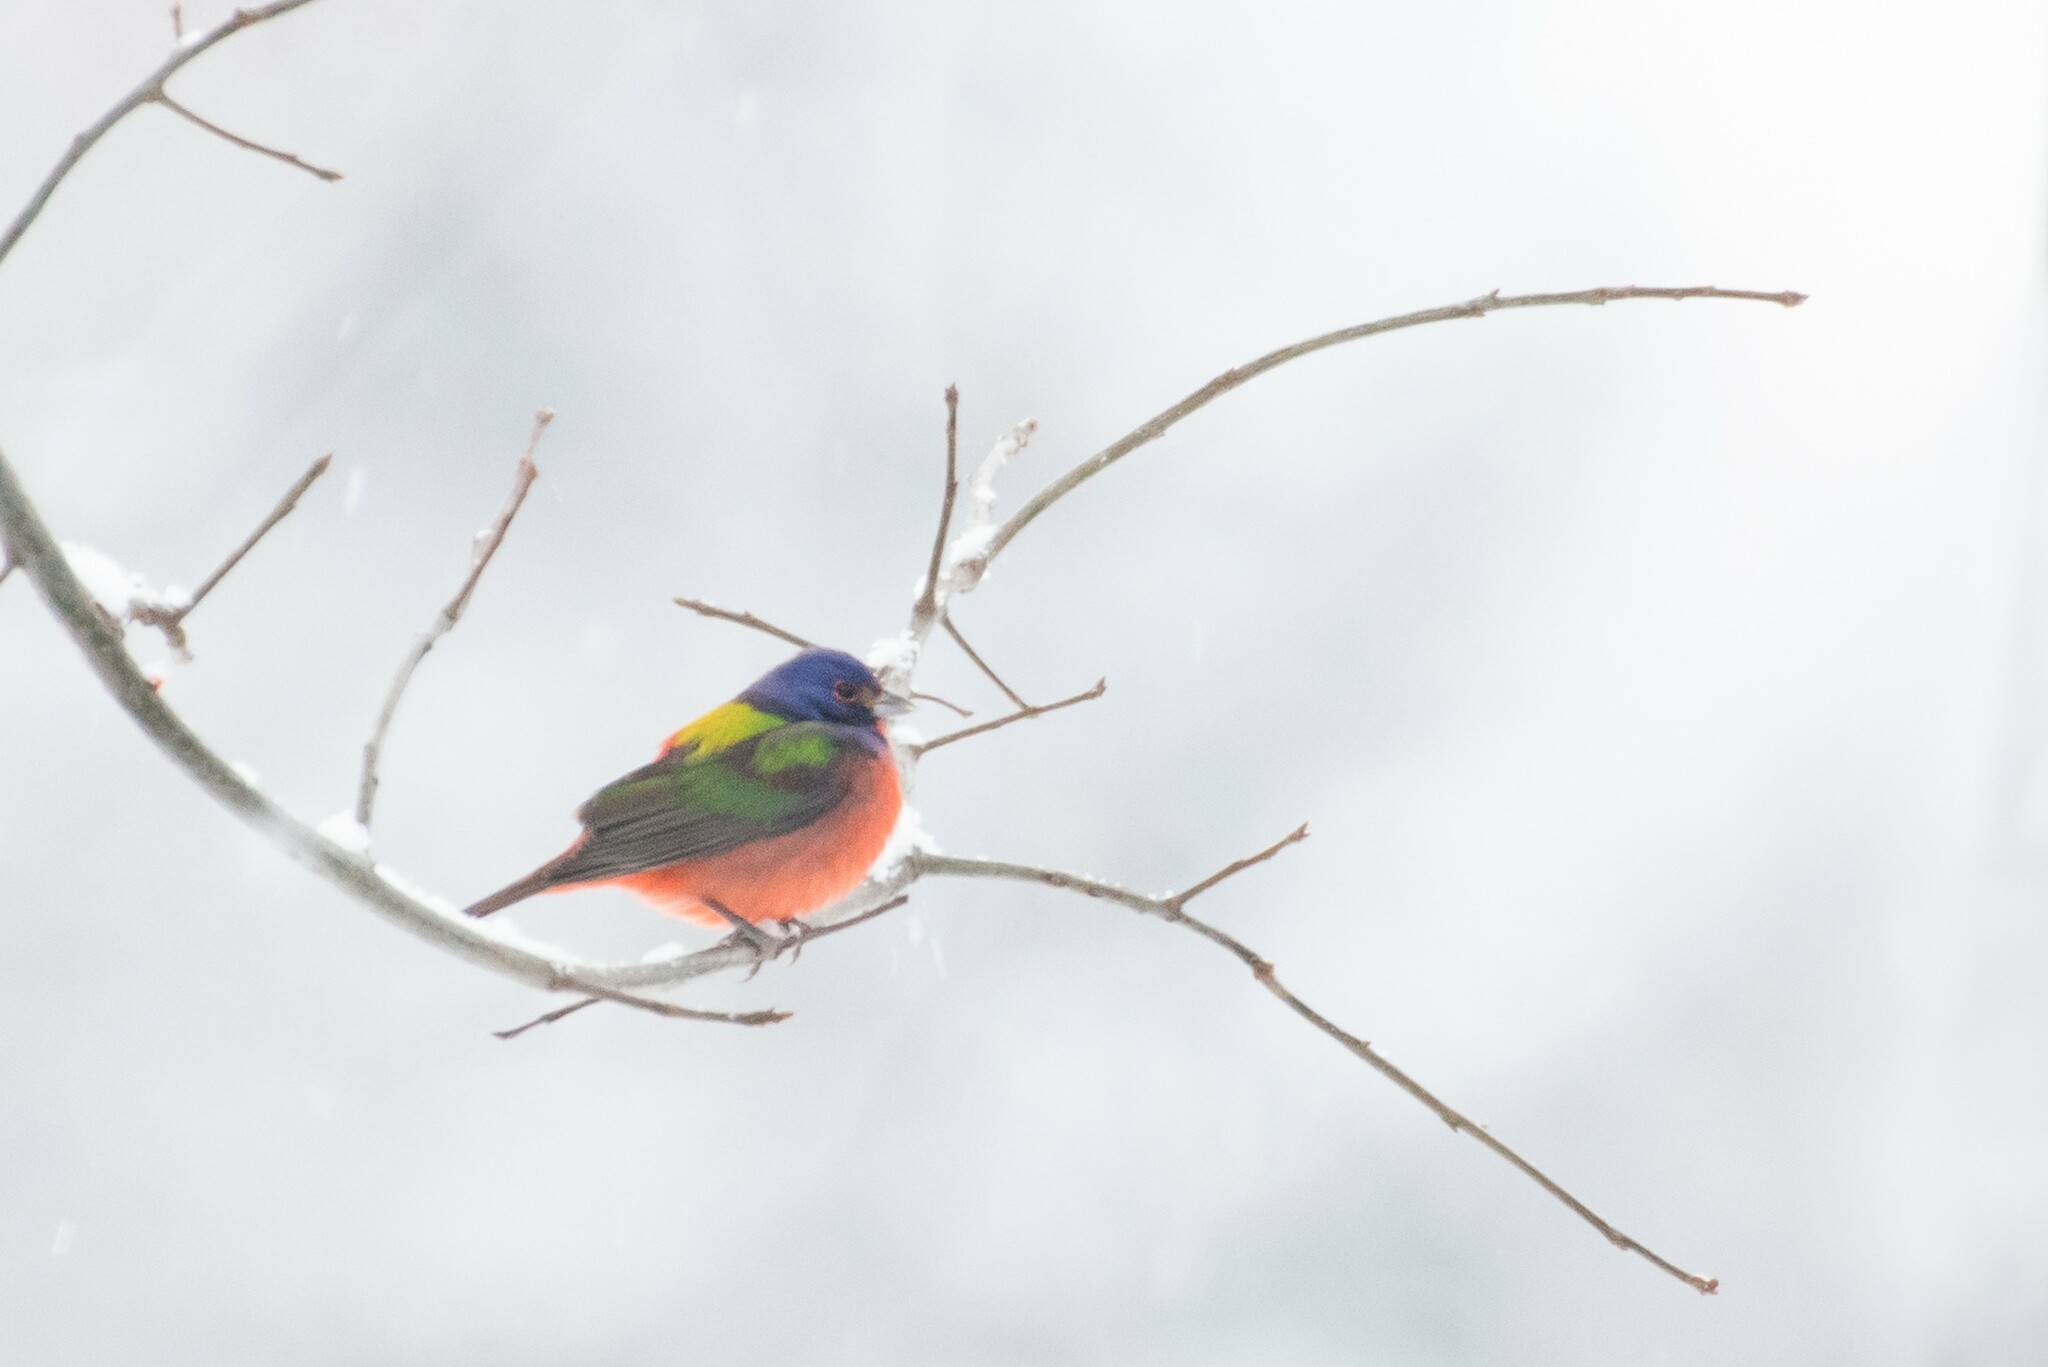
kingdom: Animalia
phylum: Chordata
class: Aves
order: Passeriformes
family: Cardinalidae
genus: Passerina
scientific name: Passerina ciris
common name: Painted bunting
